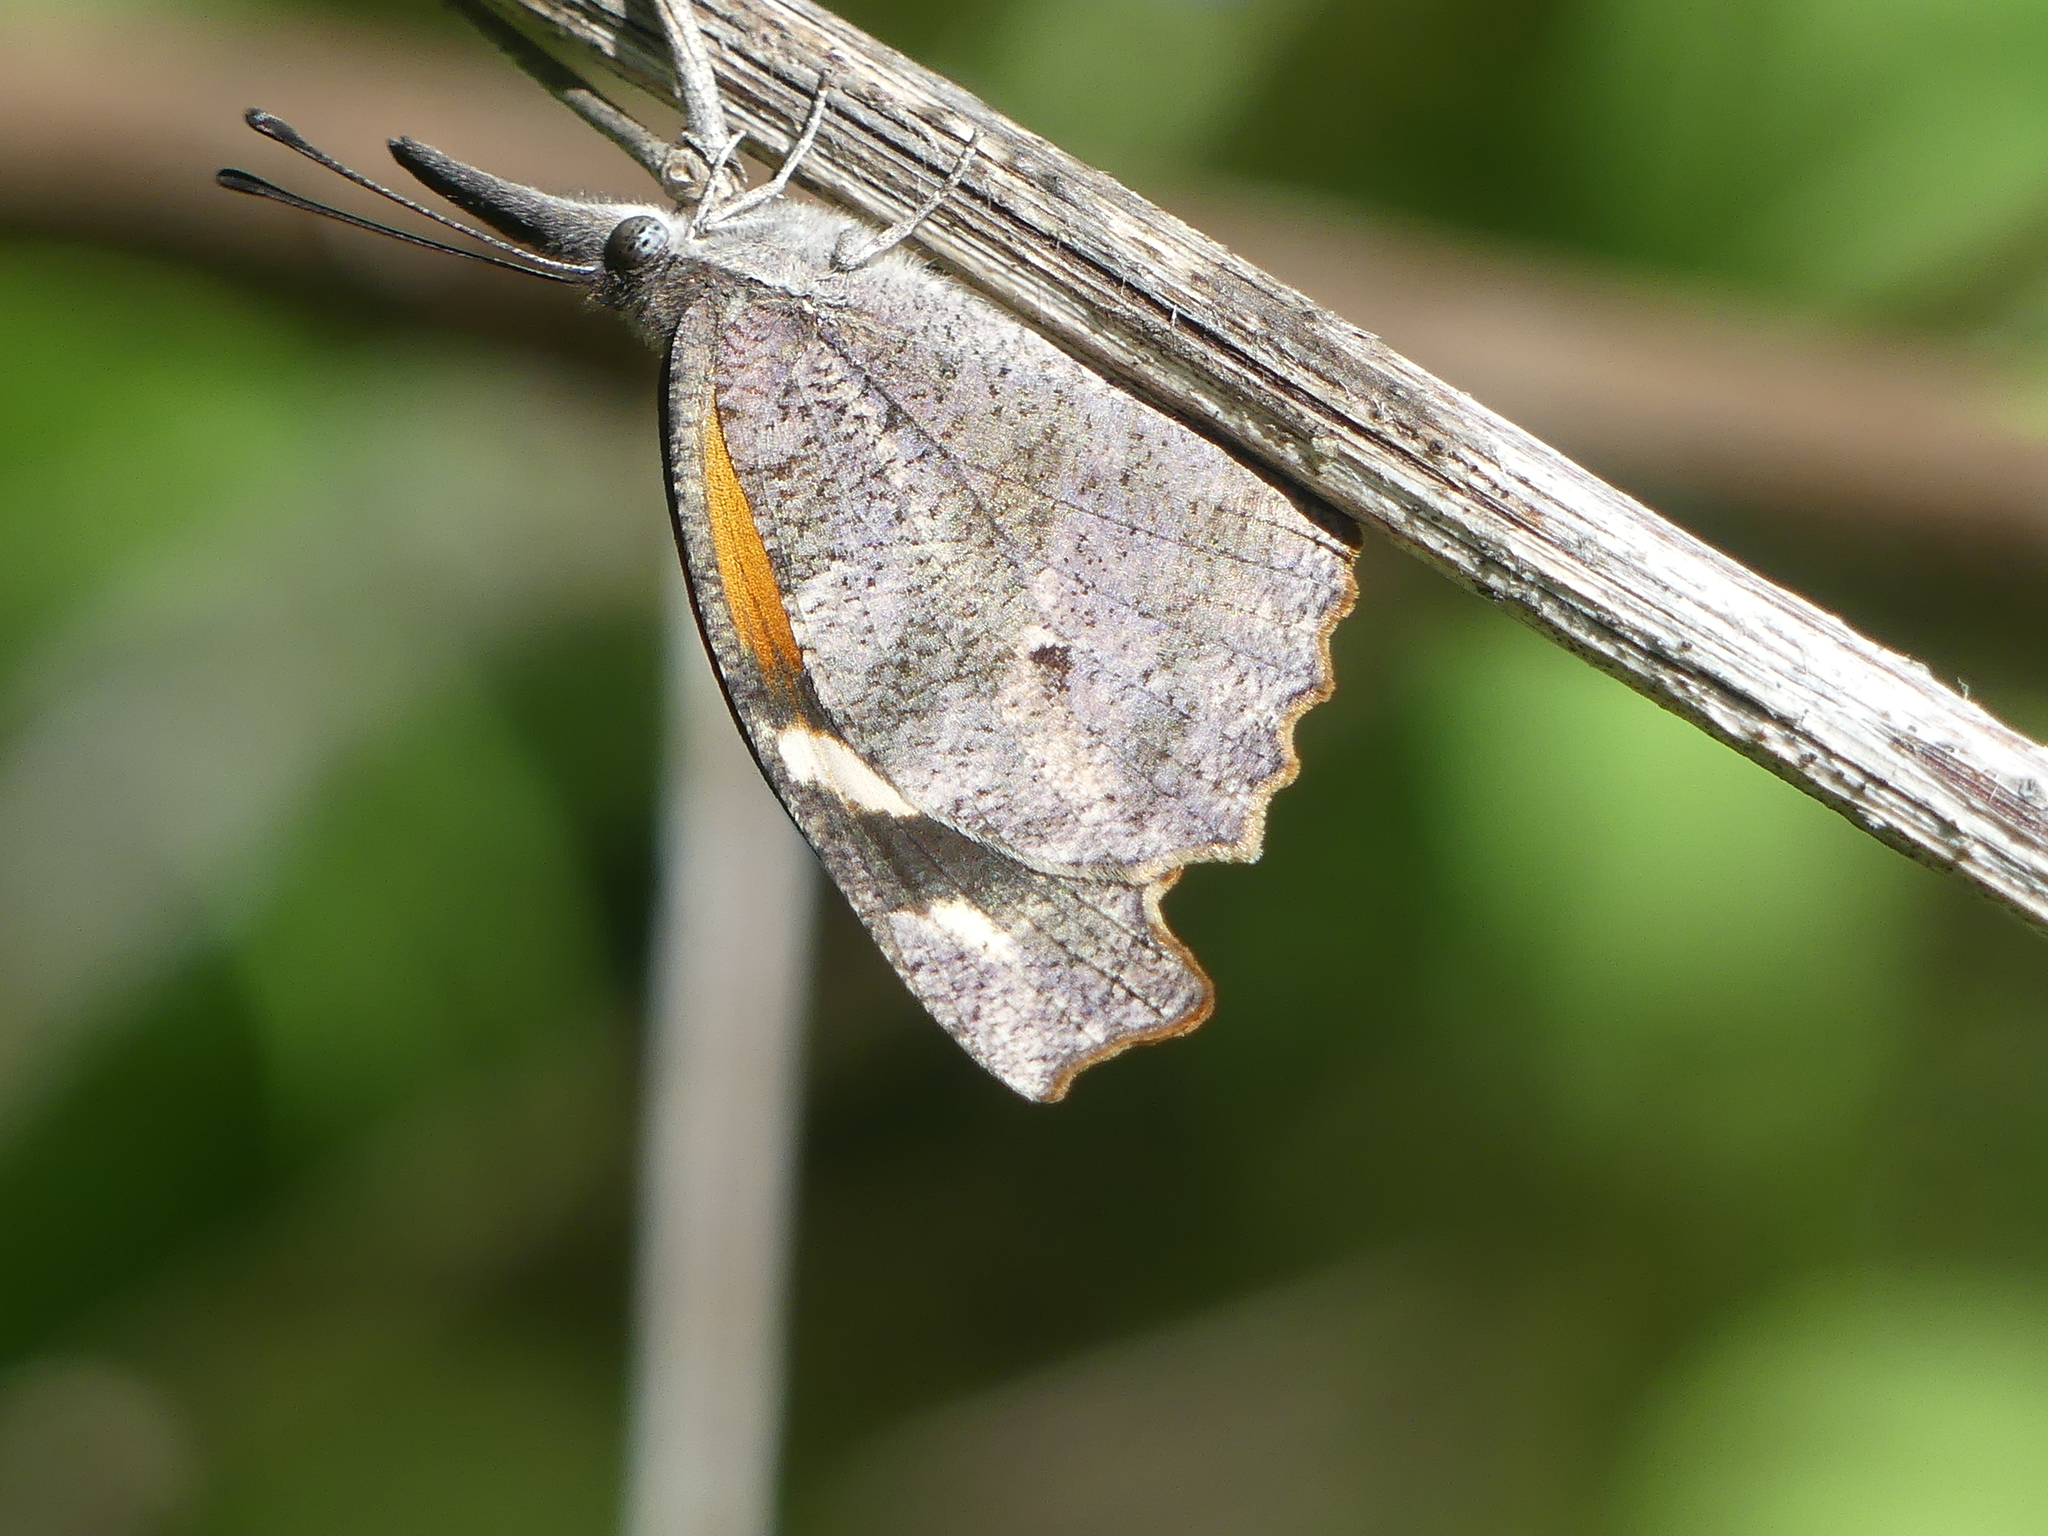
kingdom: Animalia
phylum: Arthropoda
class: Insecta
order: Lepidoptera
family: Nymphalidae
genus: Libytheana
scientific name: Libytheana carinenta
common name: American snout
